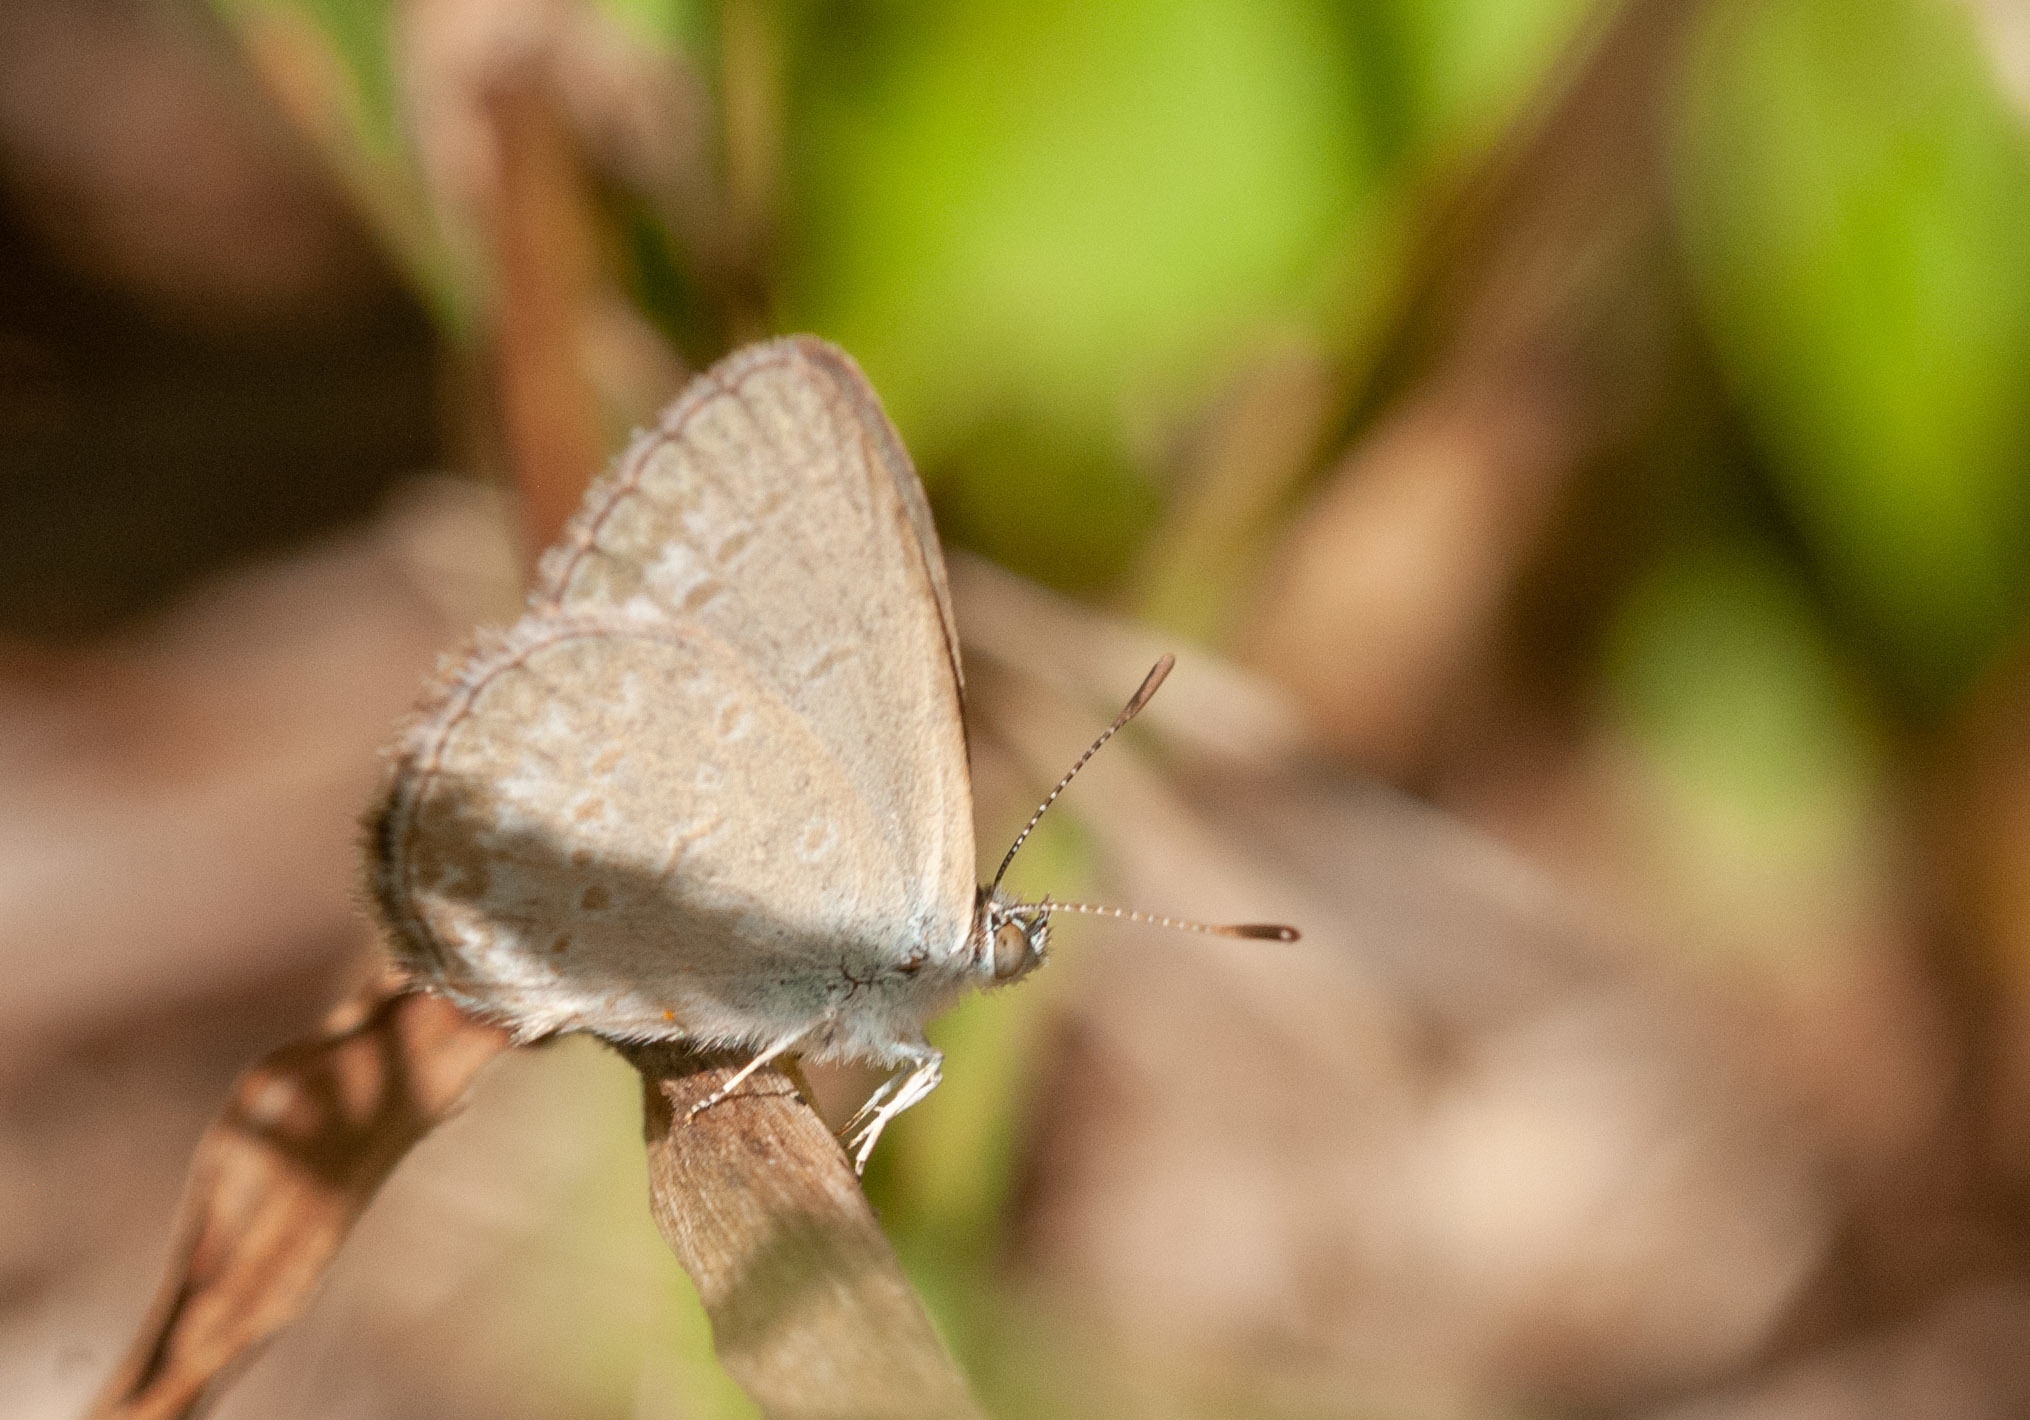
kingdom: Animalia
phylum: Arthropoda
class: Insecta
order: Lepidoptera
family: Lycaenidae
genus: Zizina
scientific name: Zizina labradus
